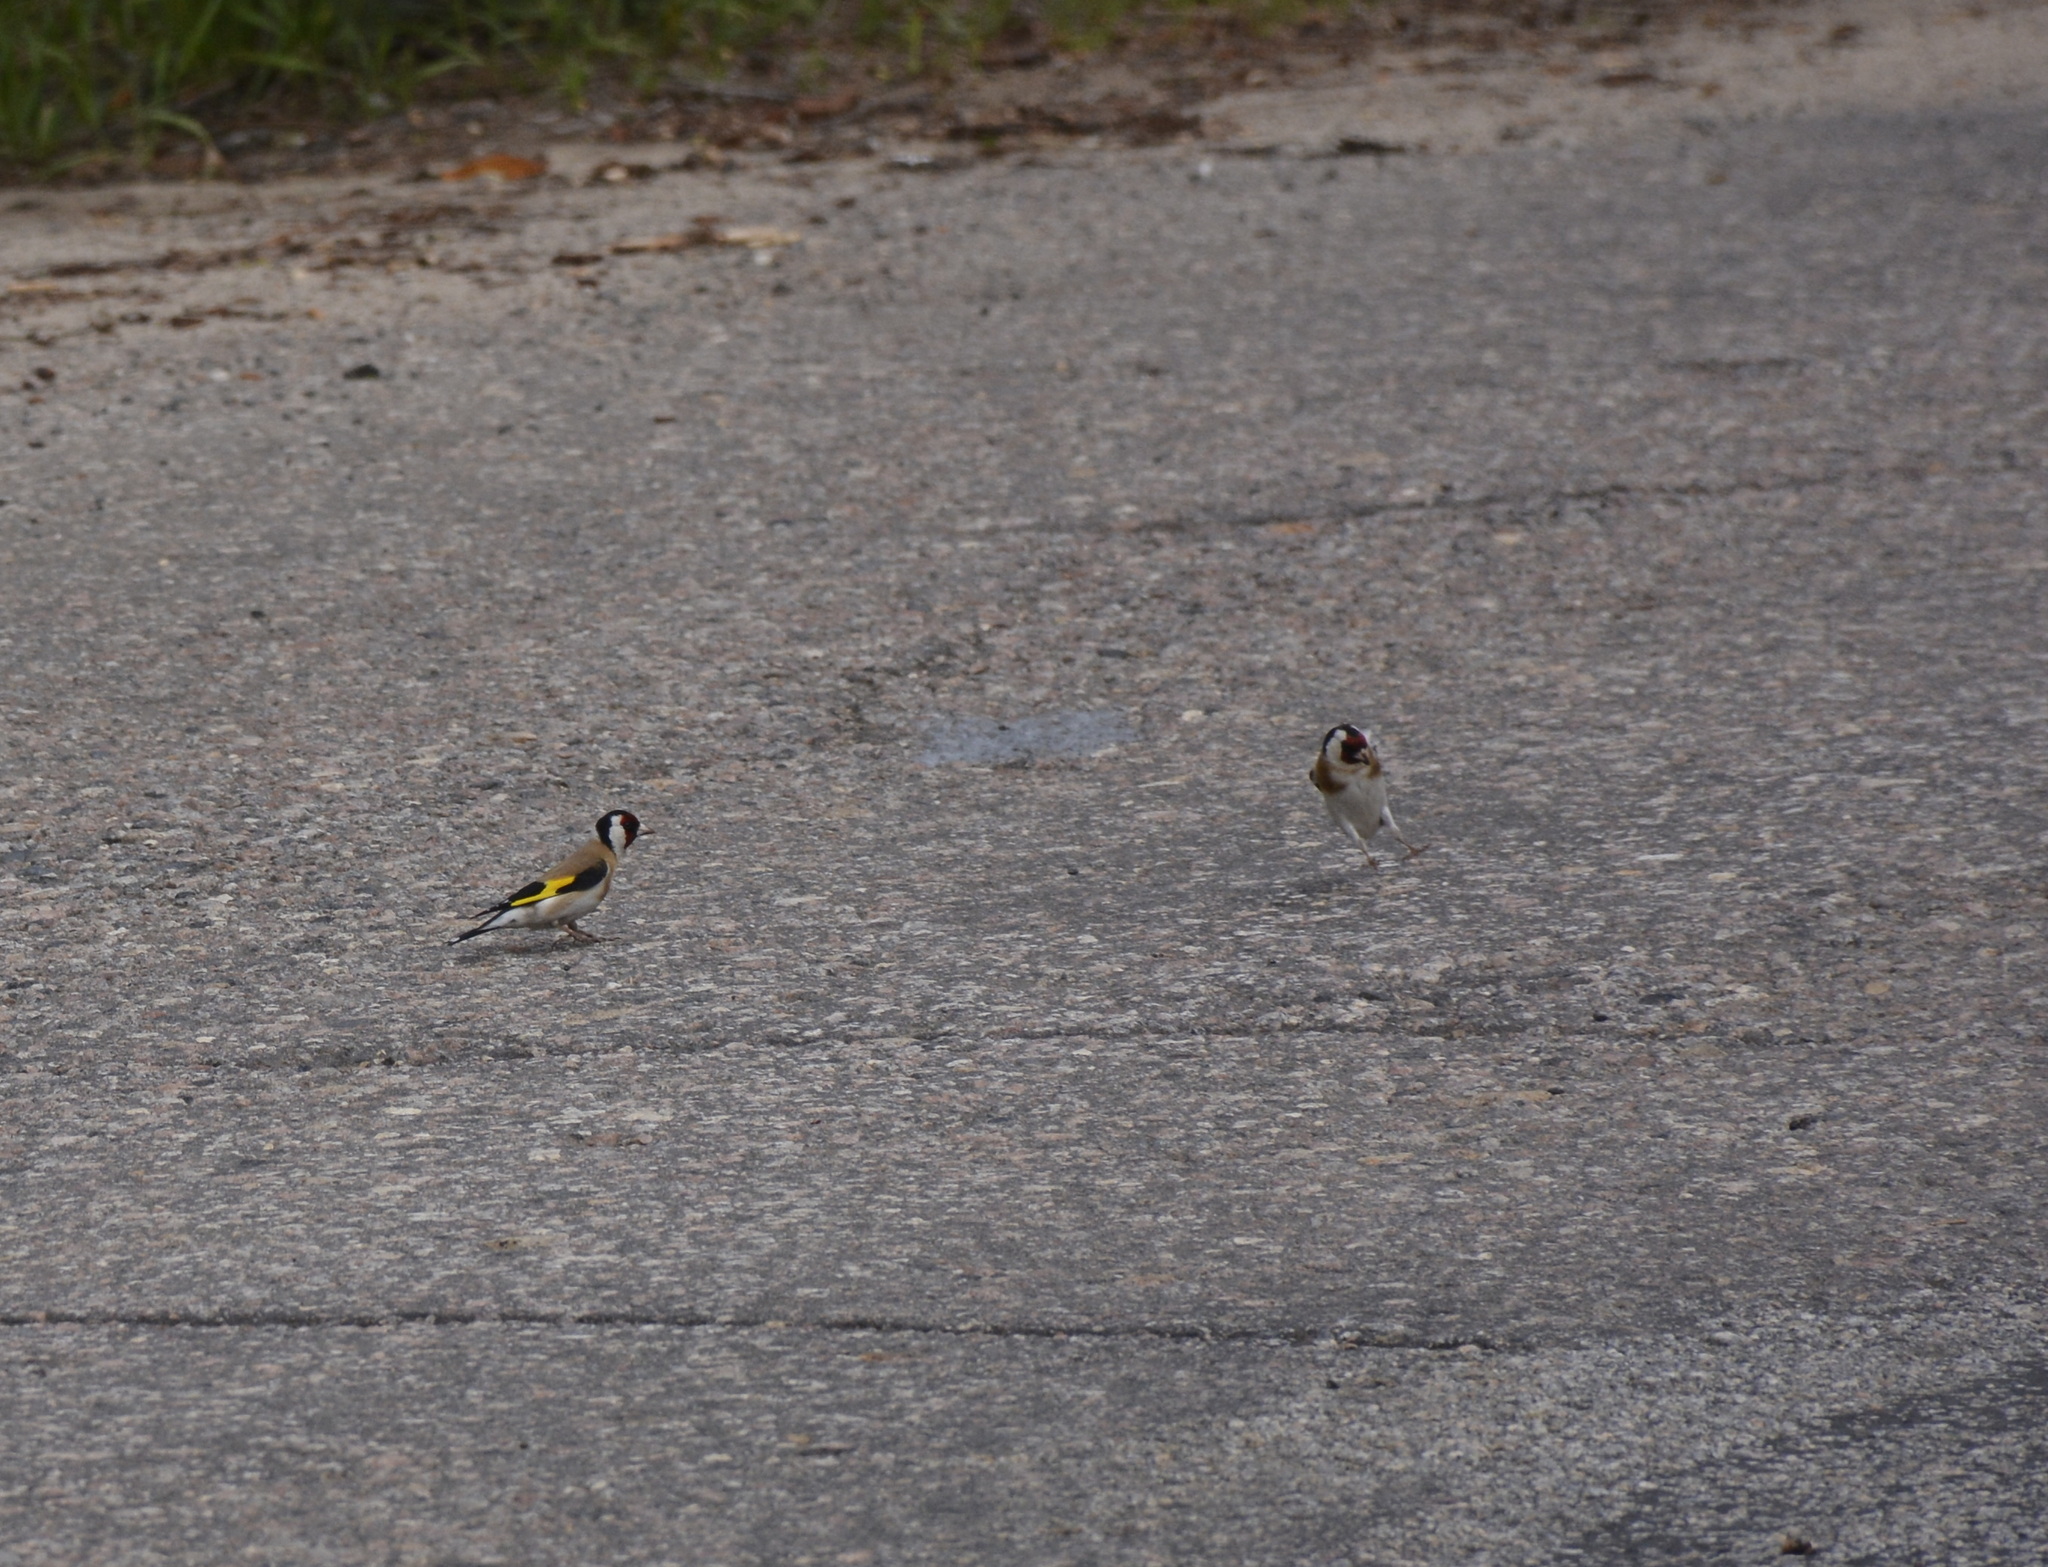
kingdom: Animalia
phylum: Chordata
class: Aves
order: Passeriformes
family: Fringillidae
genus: Carduelis
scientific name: Carduelis carduelis
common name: European goldfinch
